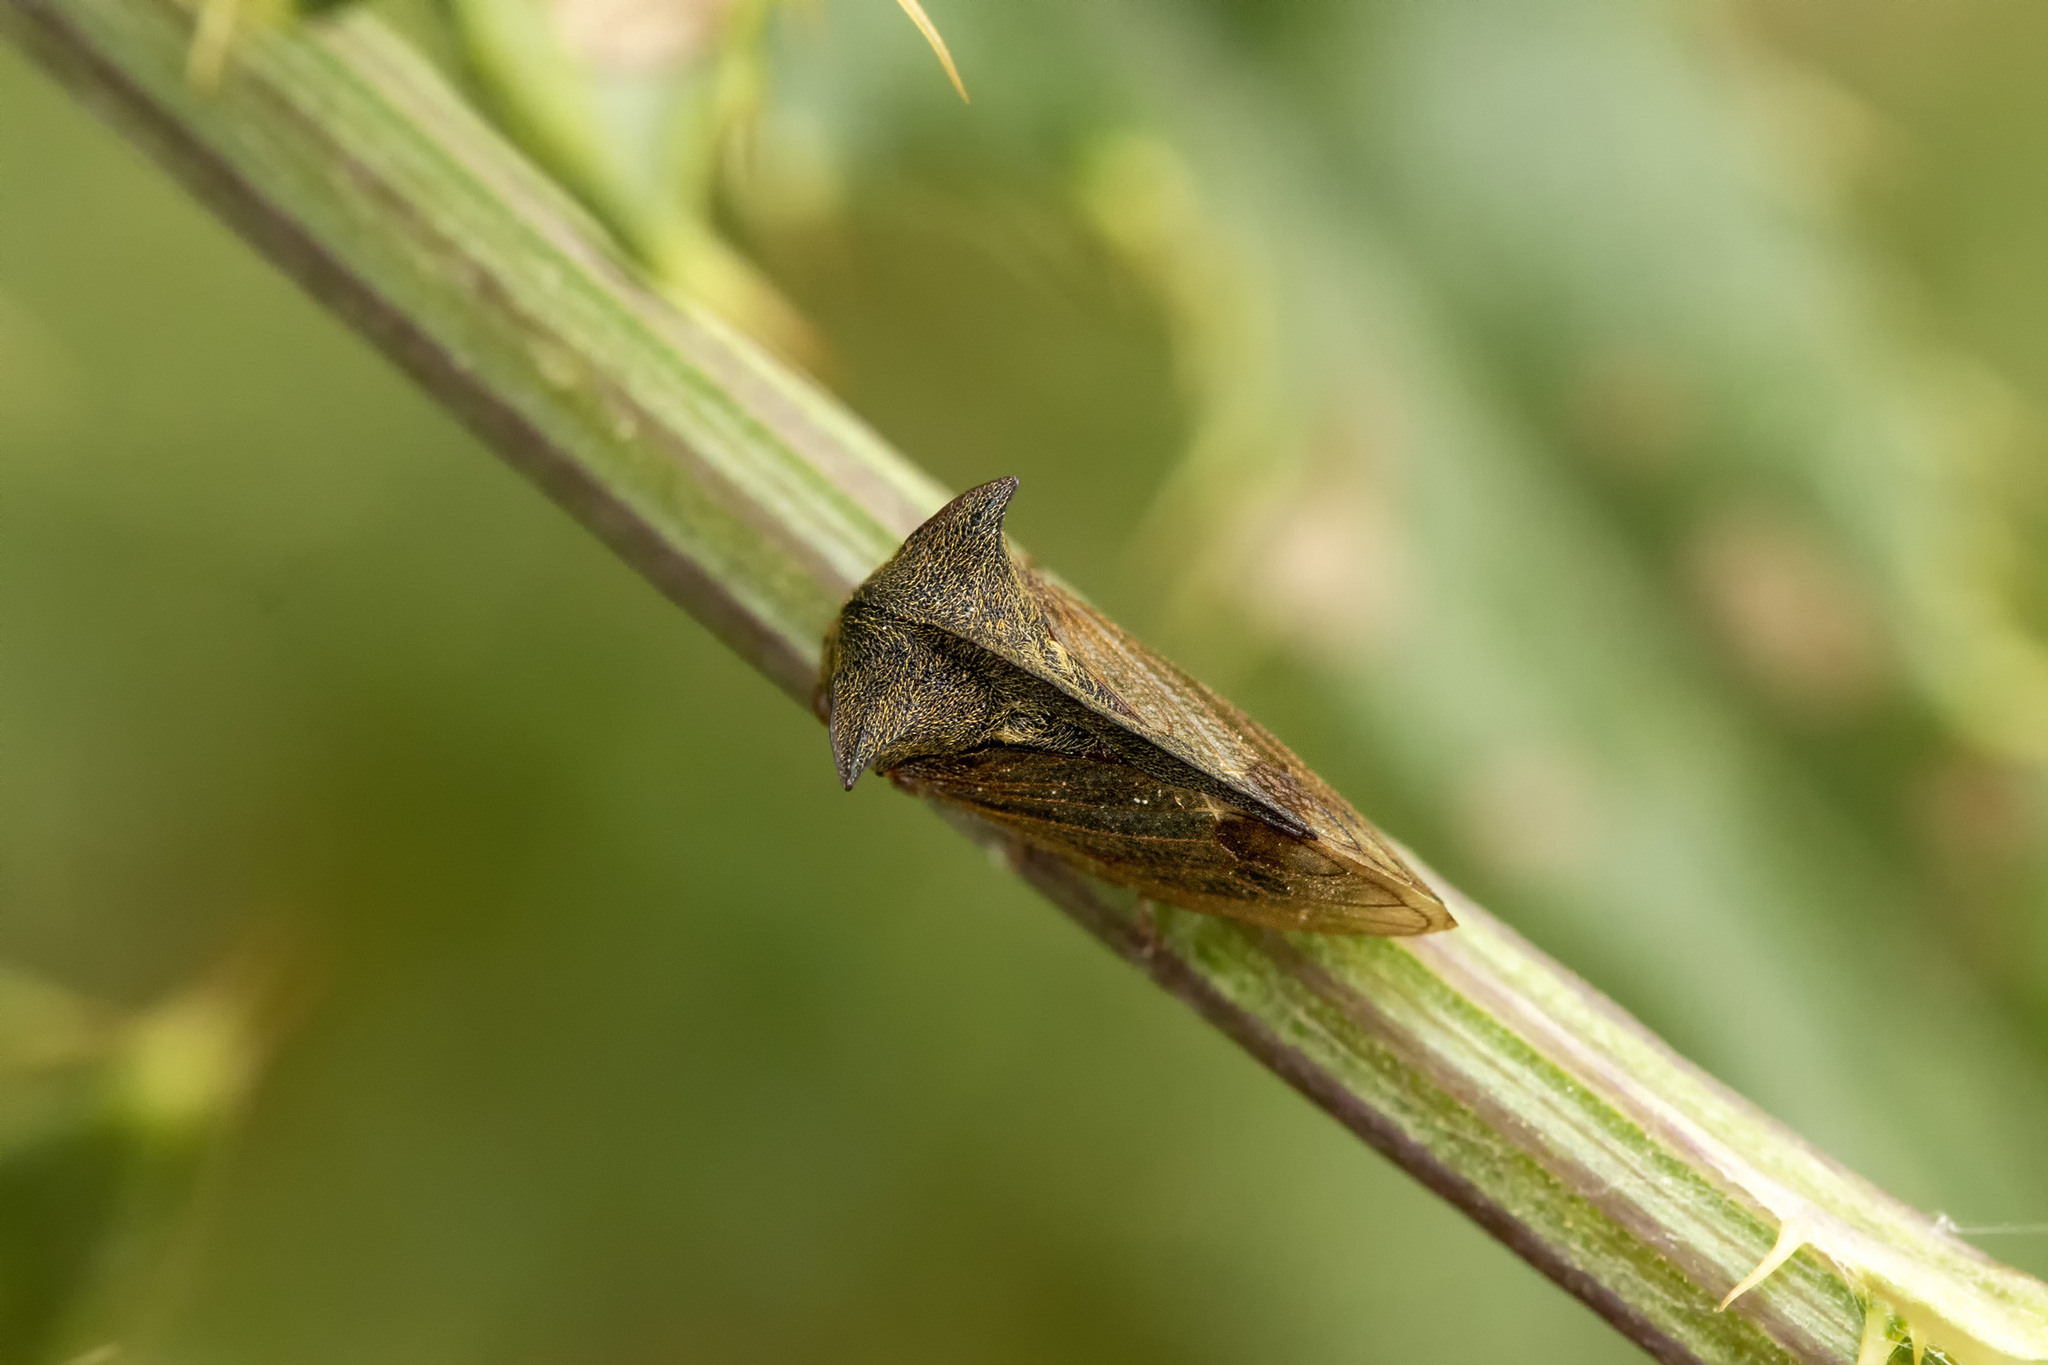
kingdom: Animalia
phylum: Arthropoda
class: Insecta
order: Hemiptera
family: Membracidae
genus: Centrotus
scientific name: Centrotus cornuta
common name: Treehopper
